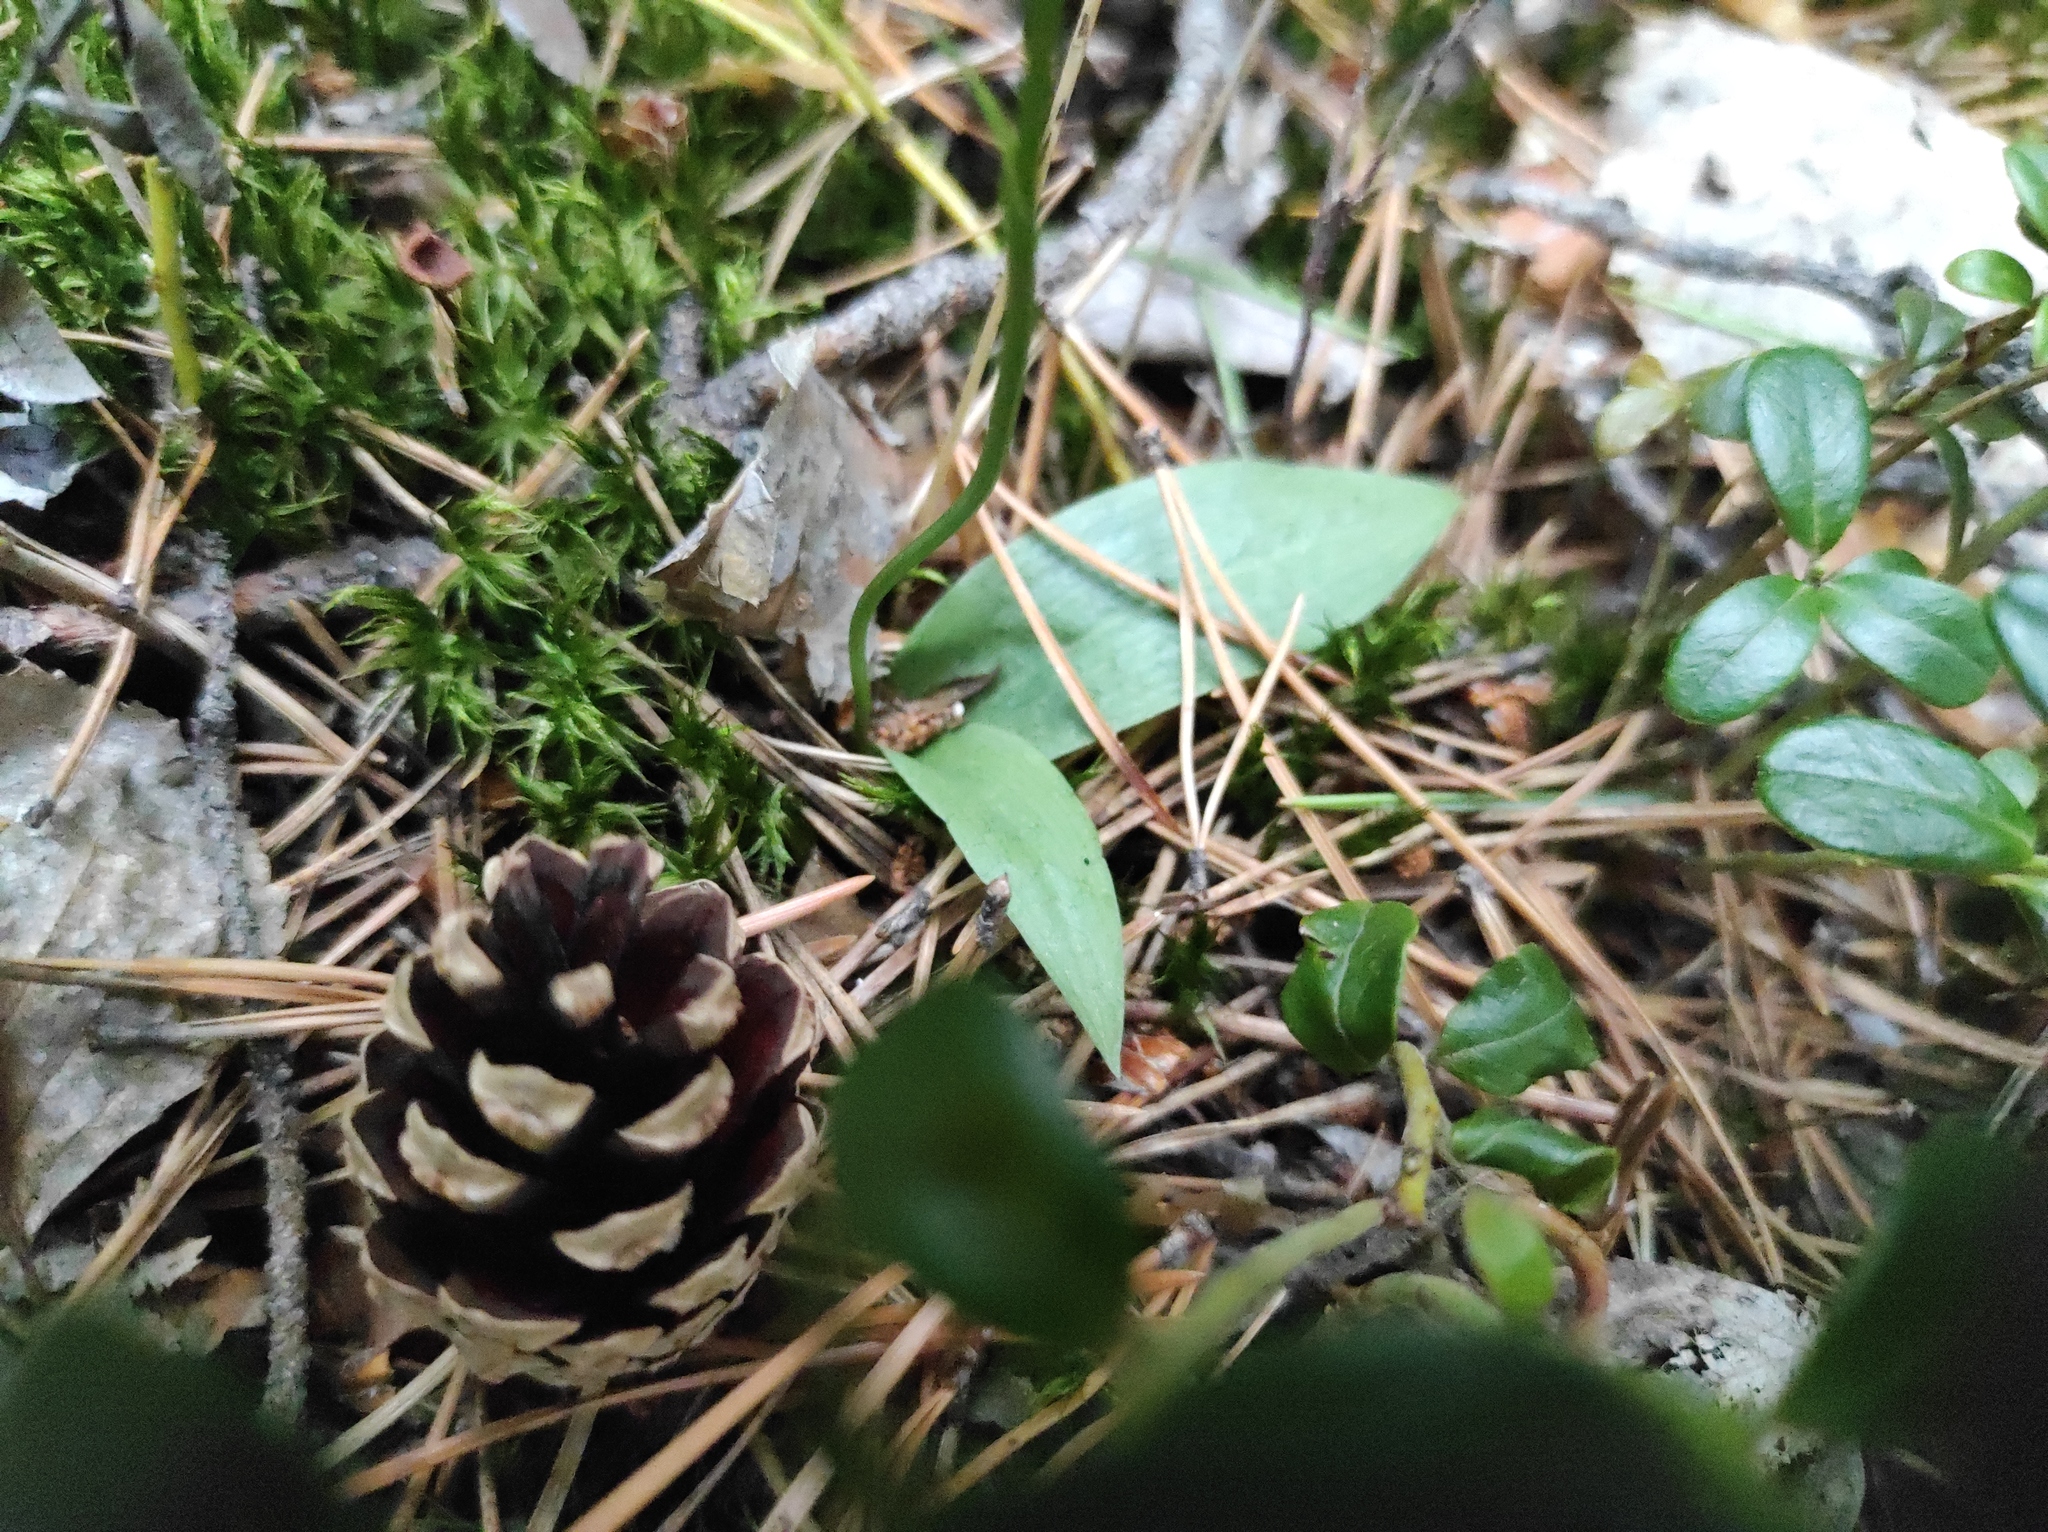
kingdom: Plantae
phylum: Tracheophyta
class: Liliopsida
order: Asparagales
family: Orchidaceae
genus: Hemipilia
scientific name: Hemipilia cucullata
